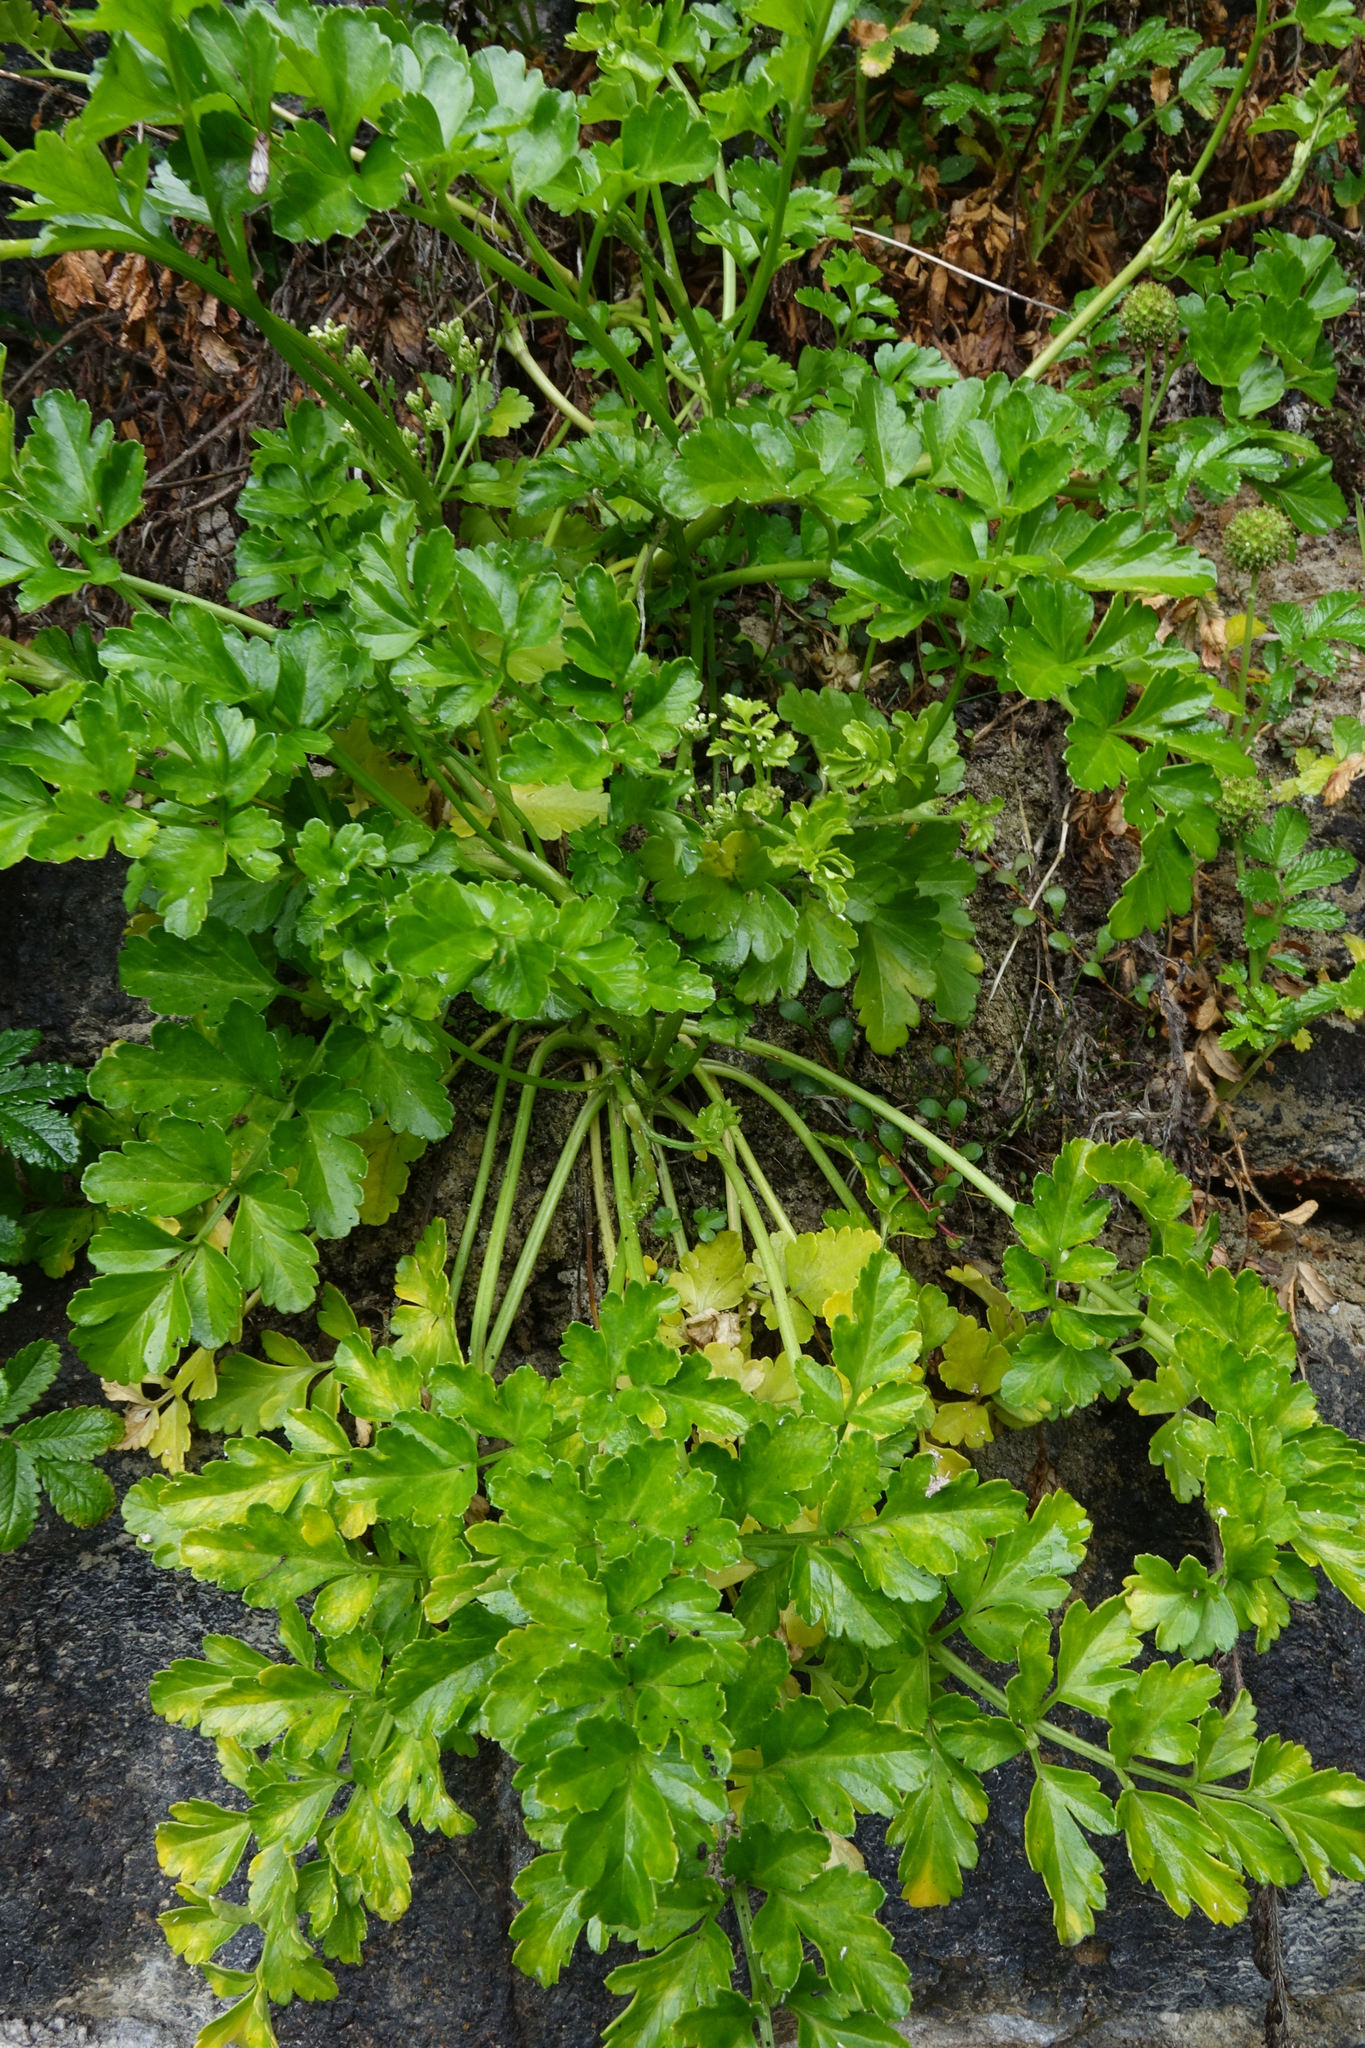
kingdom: Plantae
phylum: Tracheophyta
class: Magnoliopsida
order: Apiales
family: Apiaceae
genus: Apium
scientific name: Apium prostratum
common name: Prostrate marshwort
